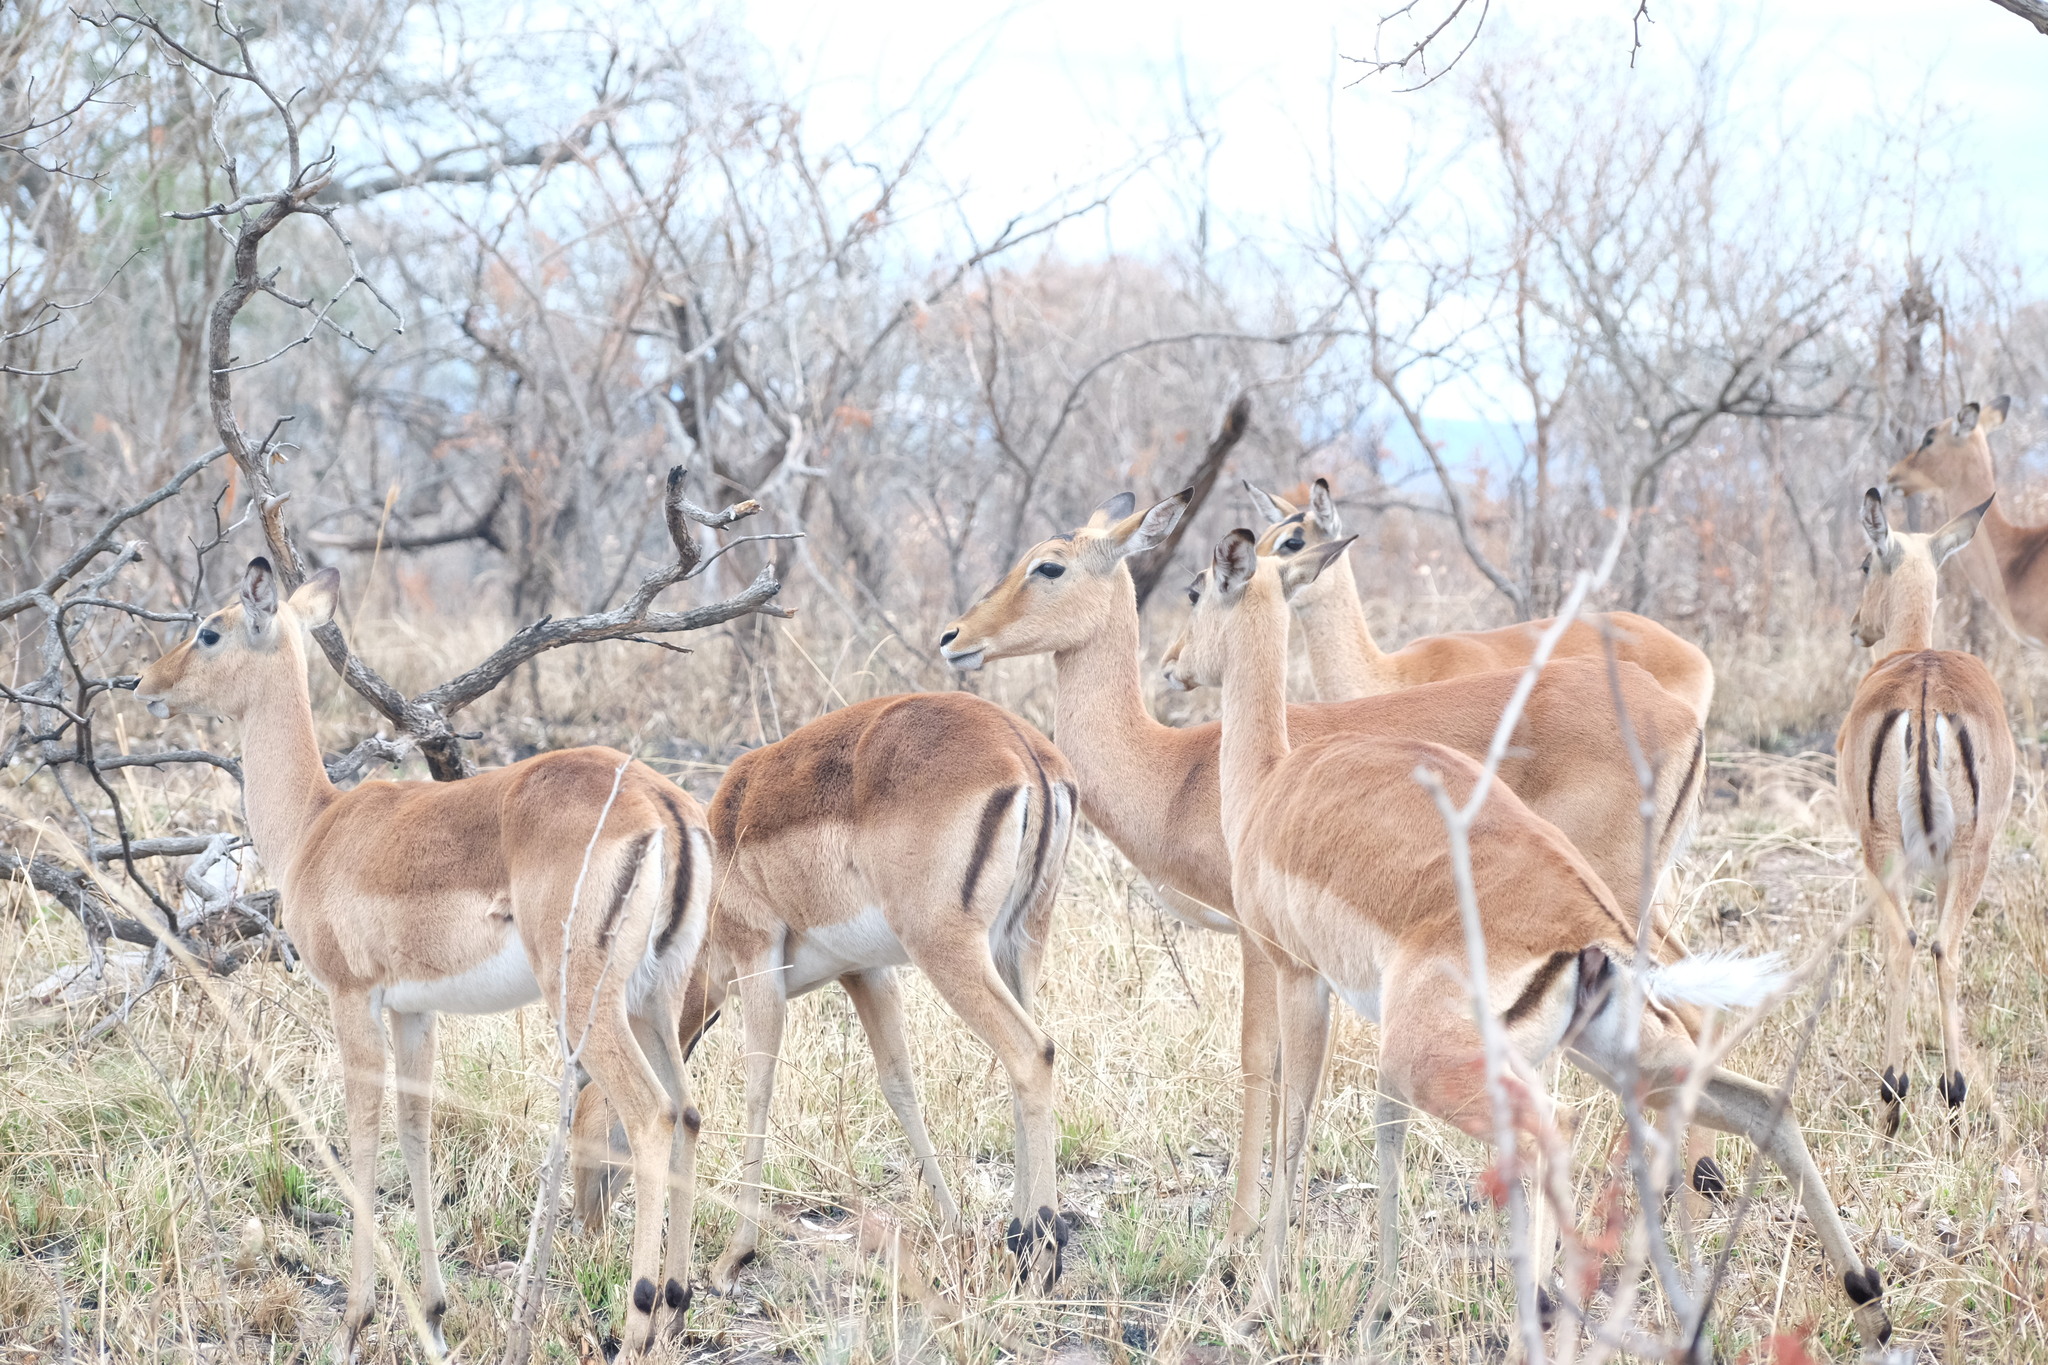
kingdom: Animalia
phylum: Chordata
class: Mammalia
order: Artiodactyla
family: Bovidae
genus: Aepyceros
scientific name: Aepyceros melampus
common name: Impala
